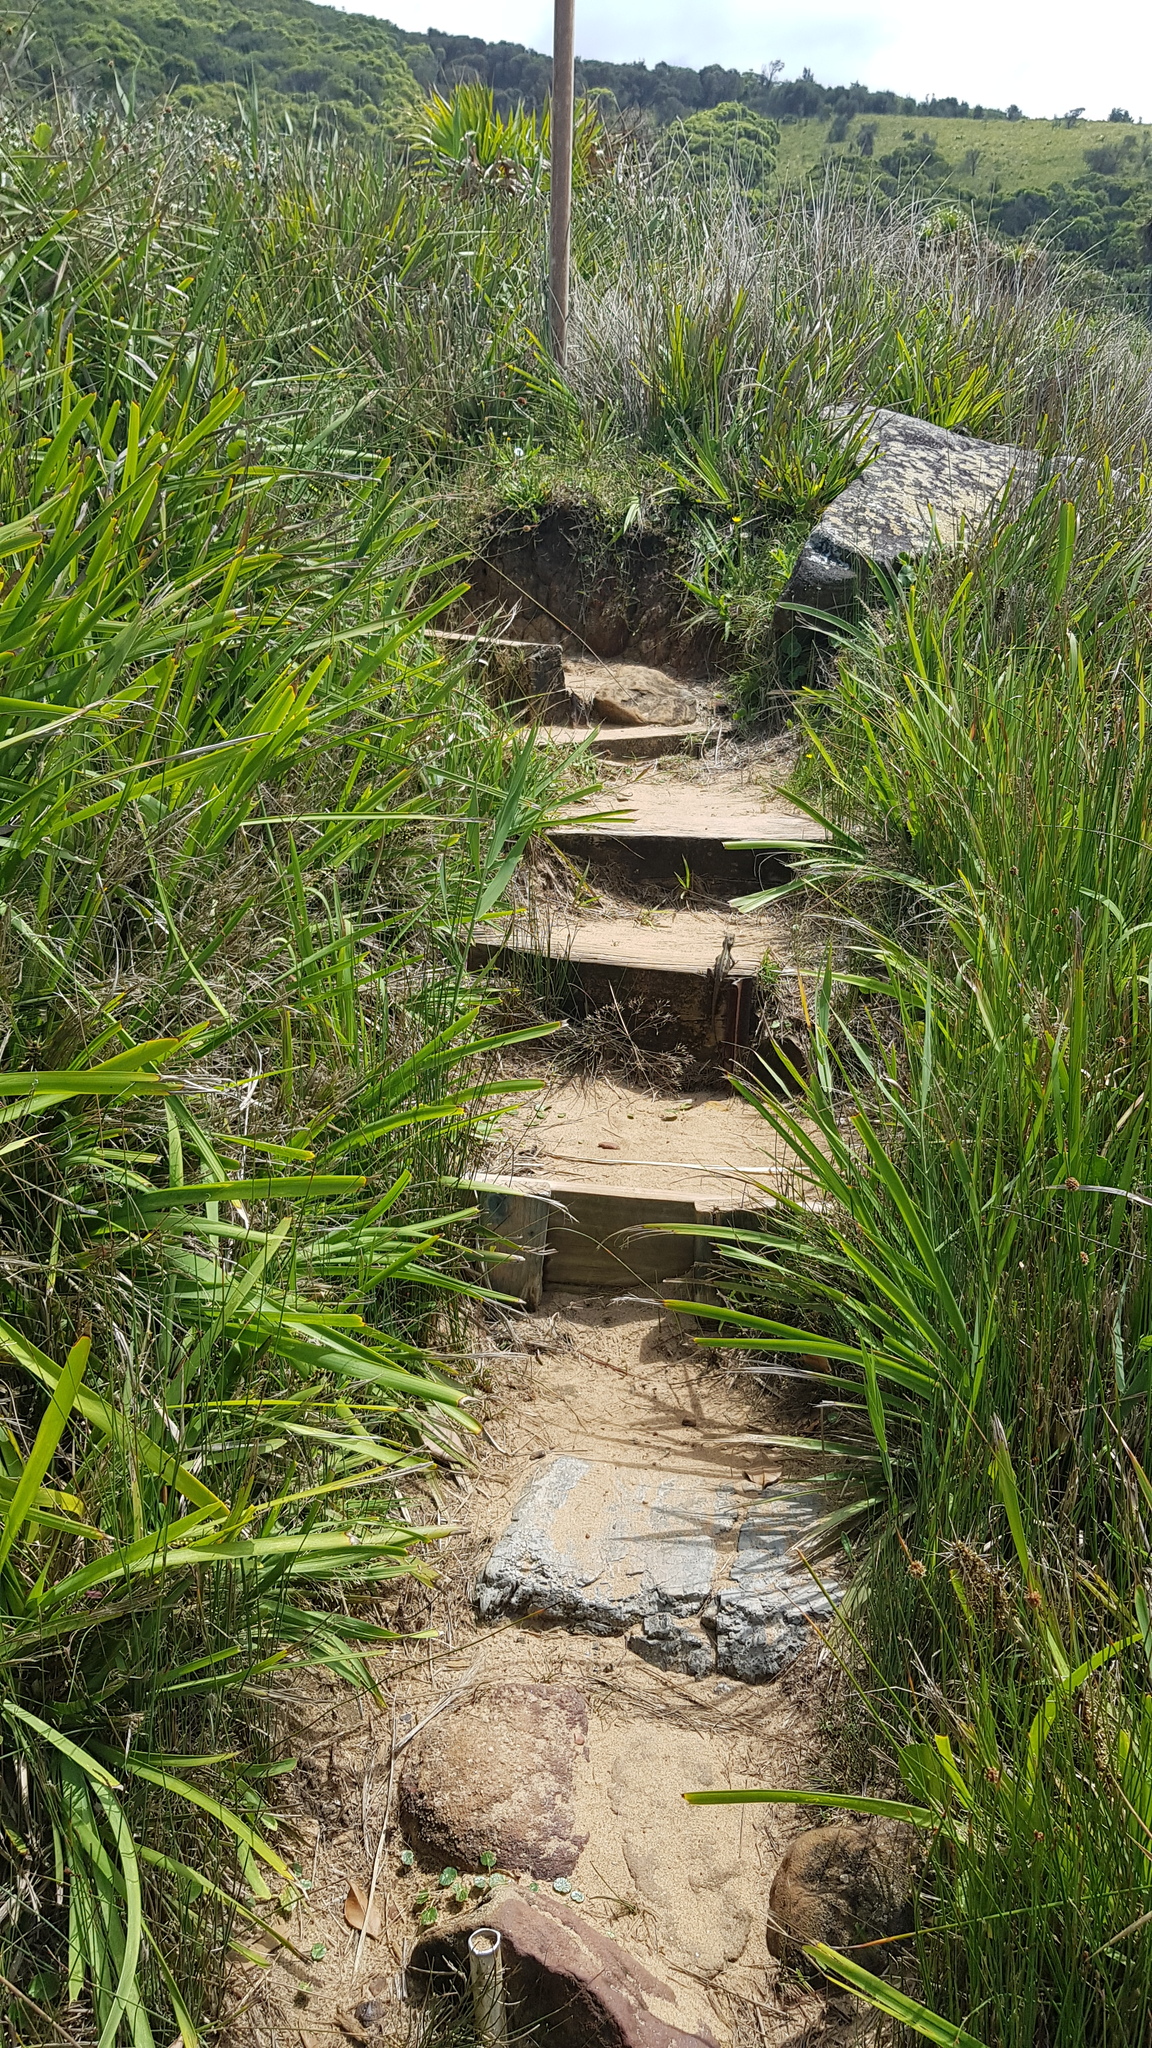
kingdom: Animalia
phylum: Chordata
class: Squamata
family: Agamidae
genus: Amphibolurus
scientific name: Amphibolurus muricatus
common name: Jacky lizard
